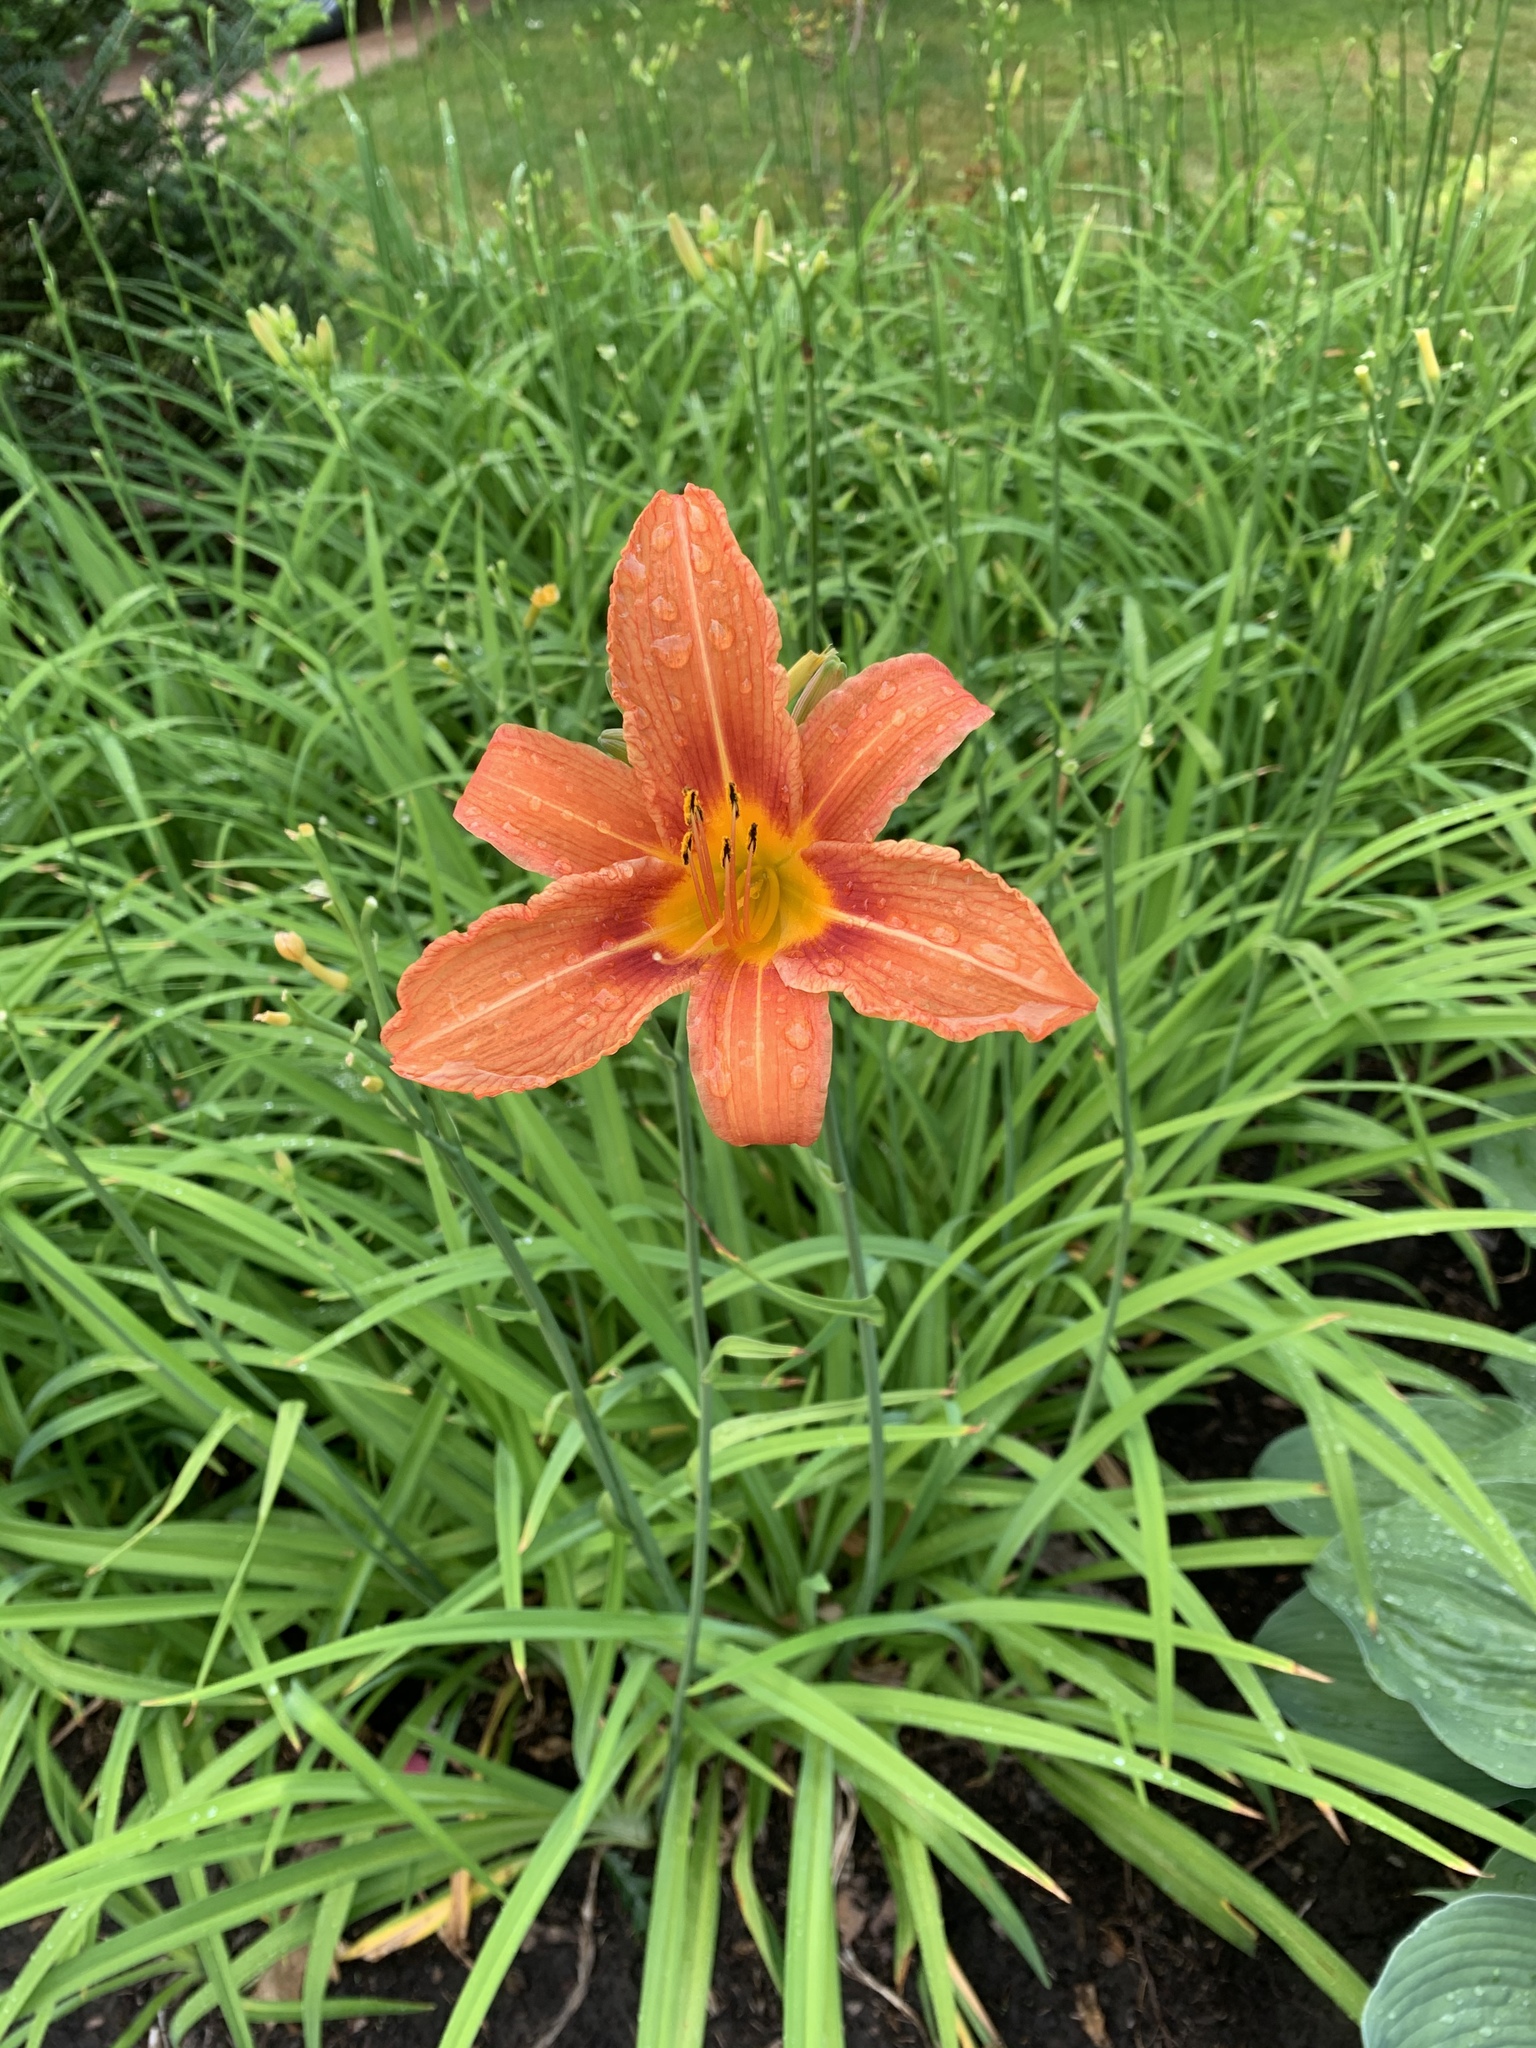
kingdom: Plantae
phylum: Tracheophyta
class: Liliopsida
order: Asparagales
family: Asphodelaceae
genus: Hemerocallis
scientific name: Hemerocallis fulva
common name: Orange day-lily
